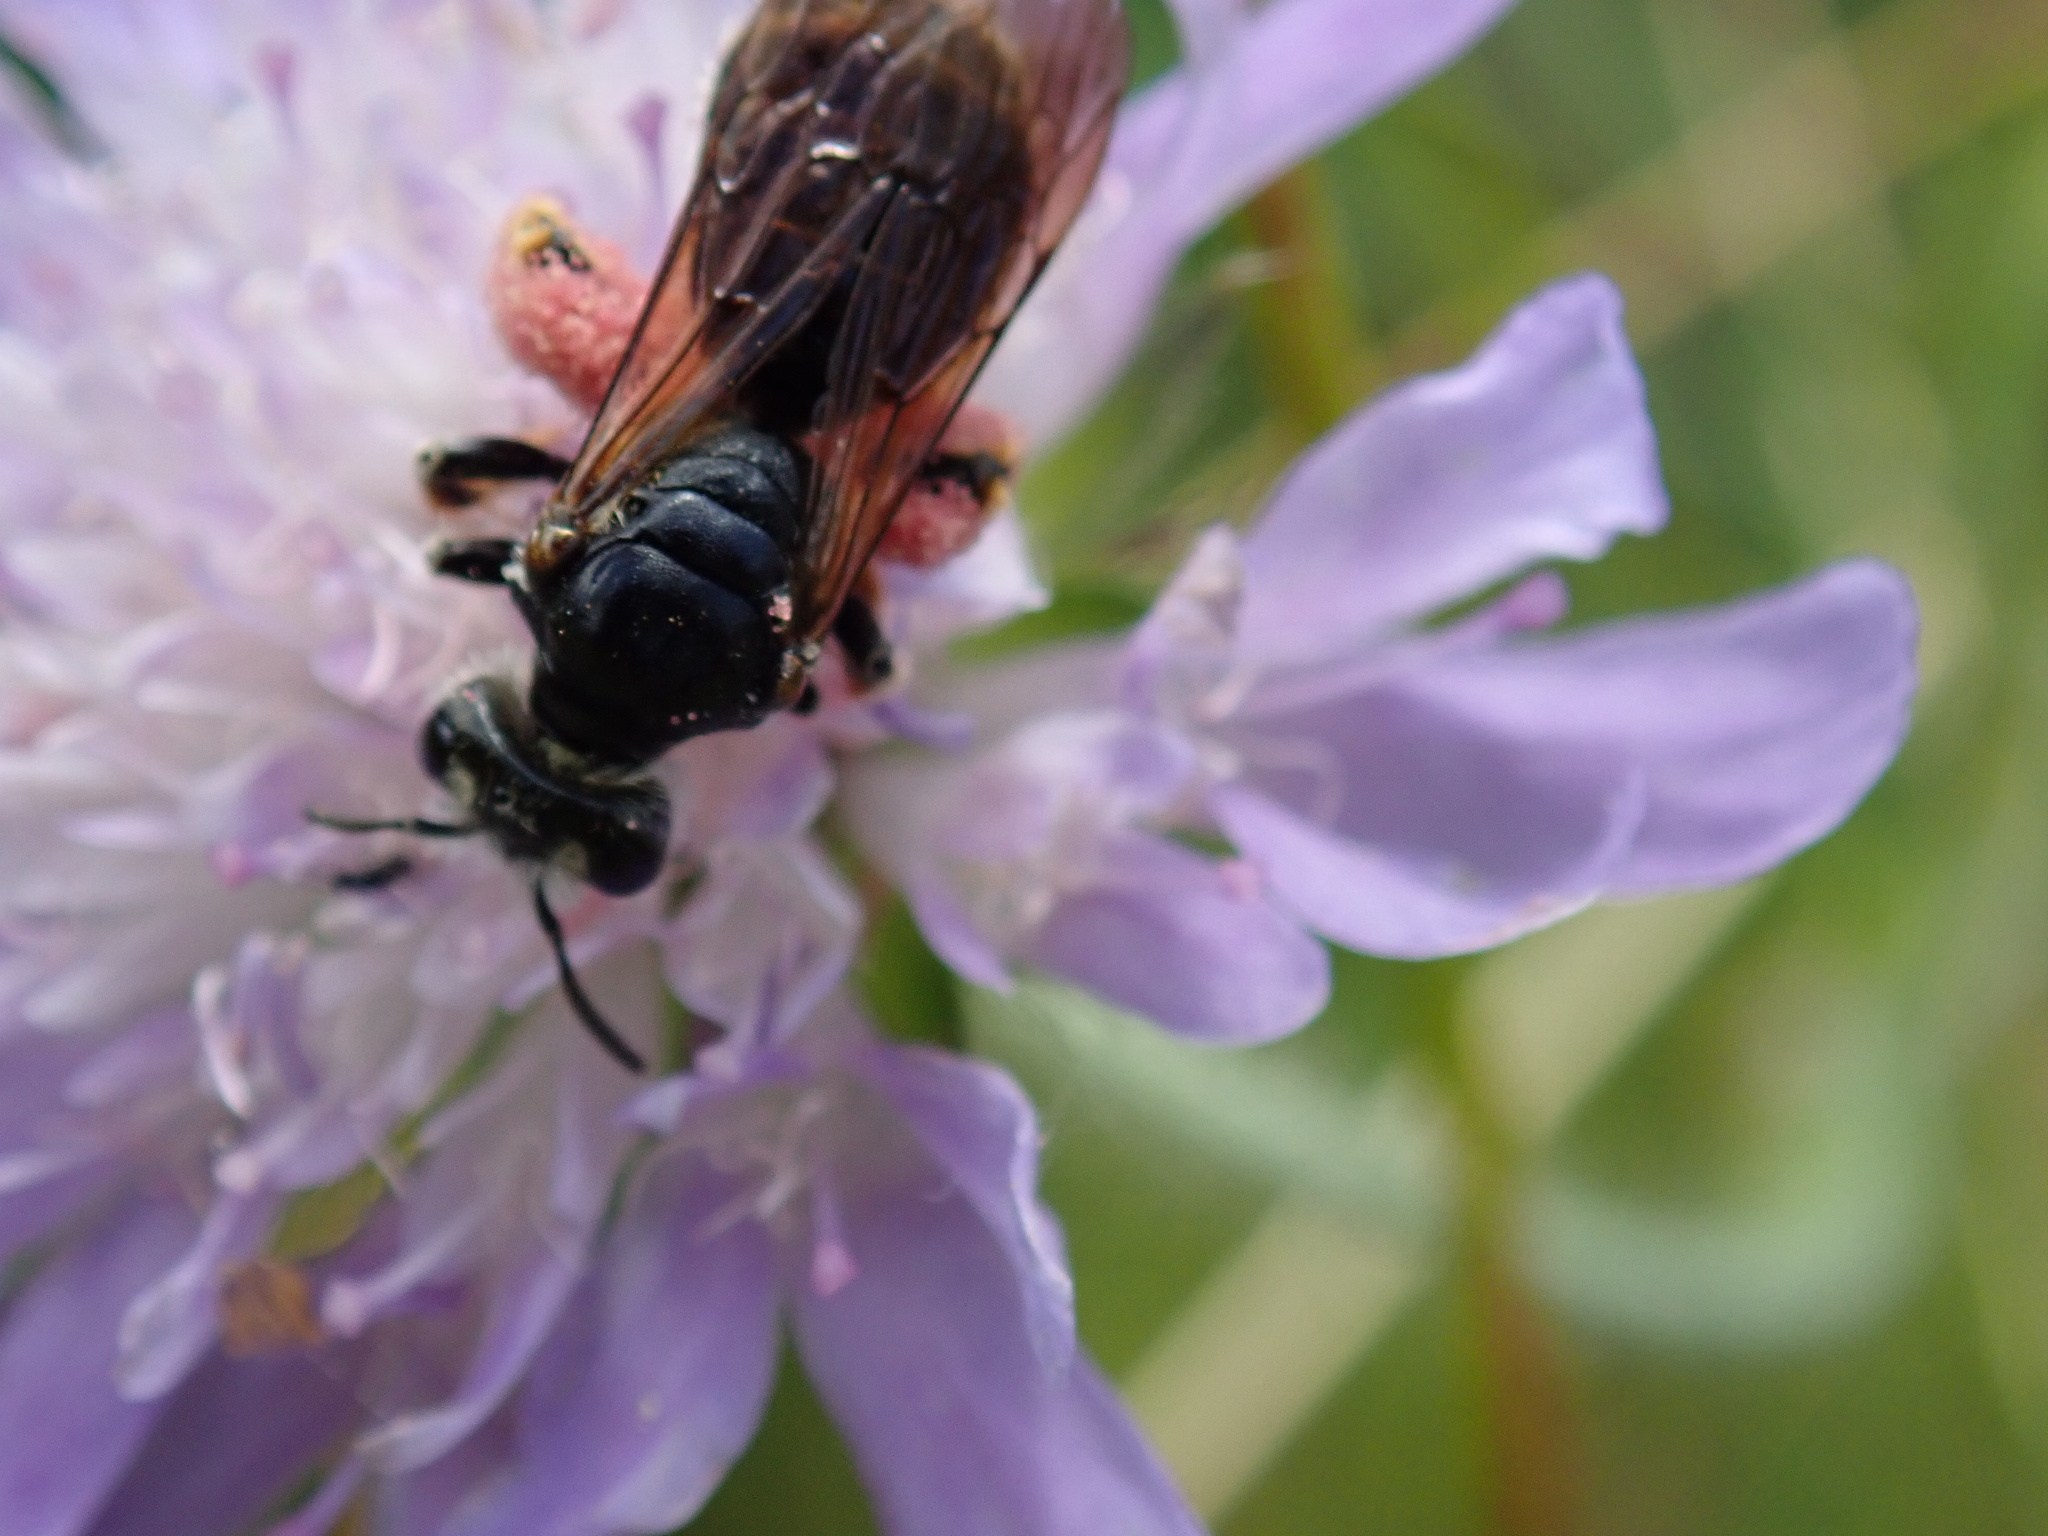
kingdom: Animalia
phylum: Arthropoda
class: Insecta
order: Hymenoptera
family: Andrenidae
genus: Andrena
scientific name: Andrena hattorfiana
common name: Large scabious mining bee
